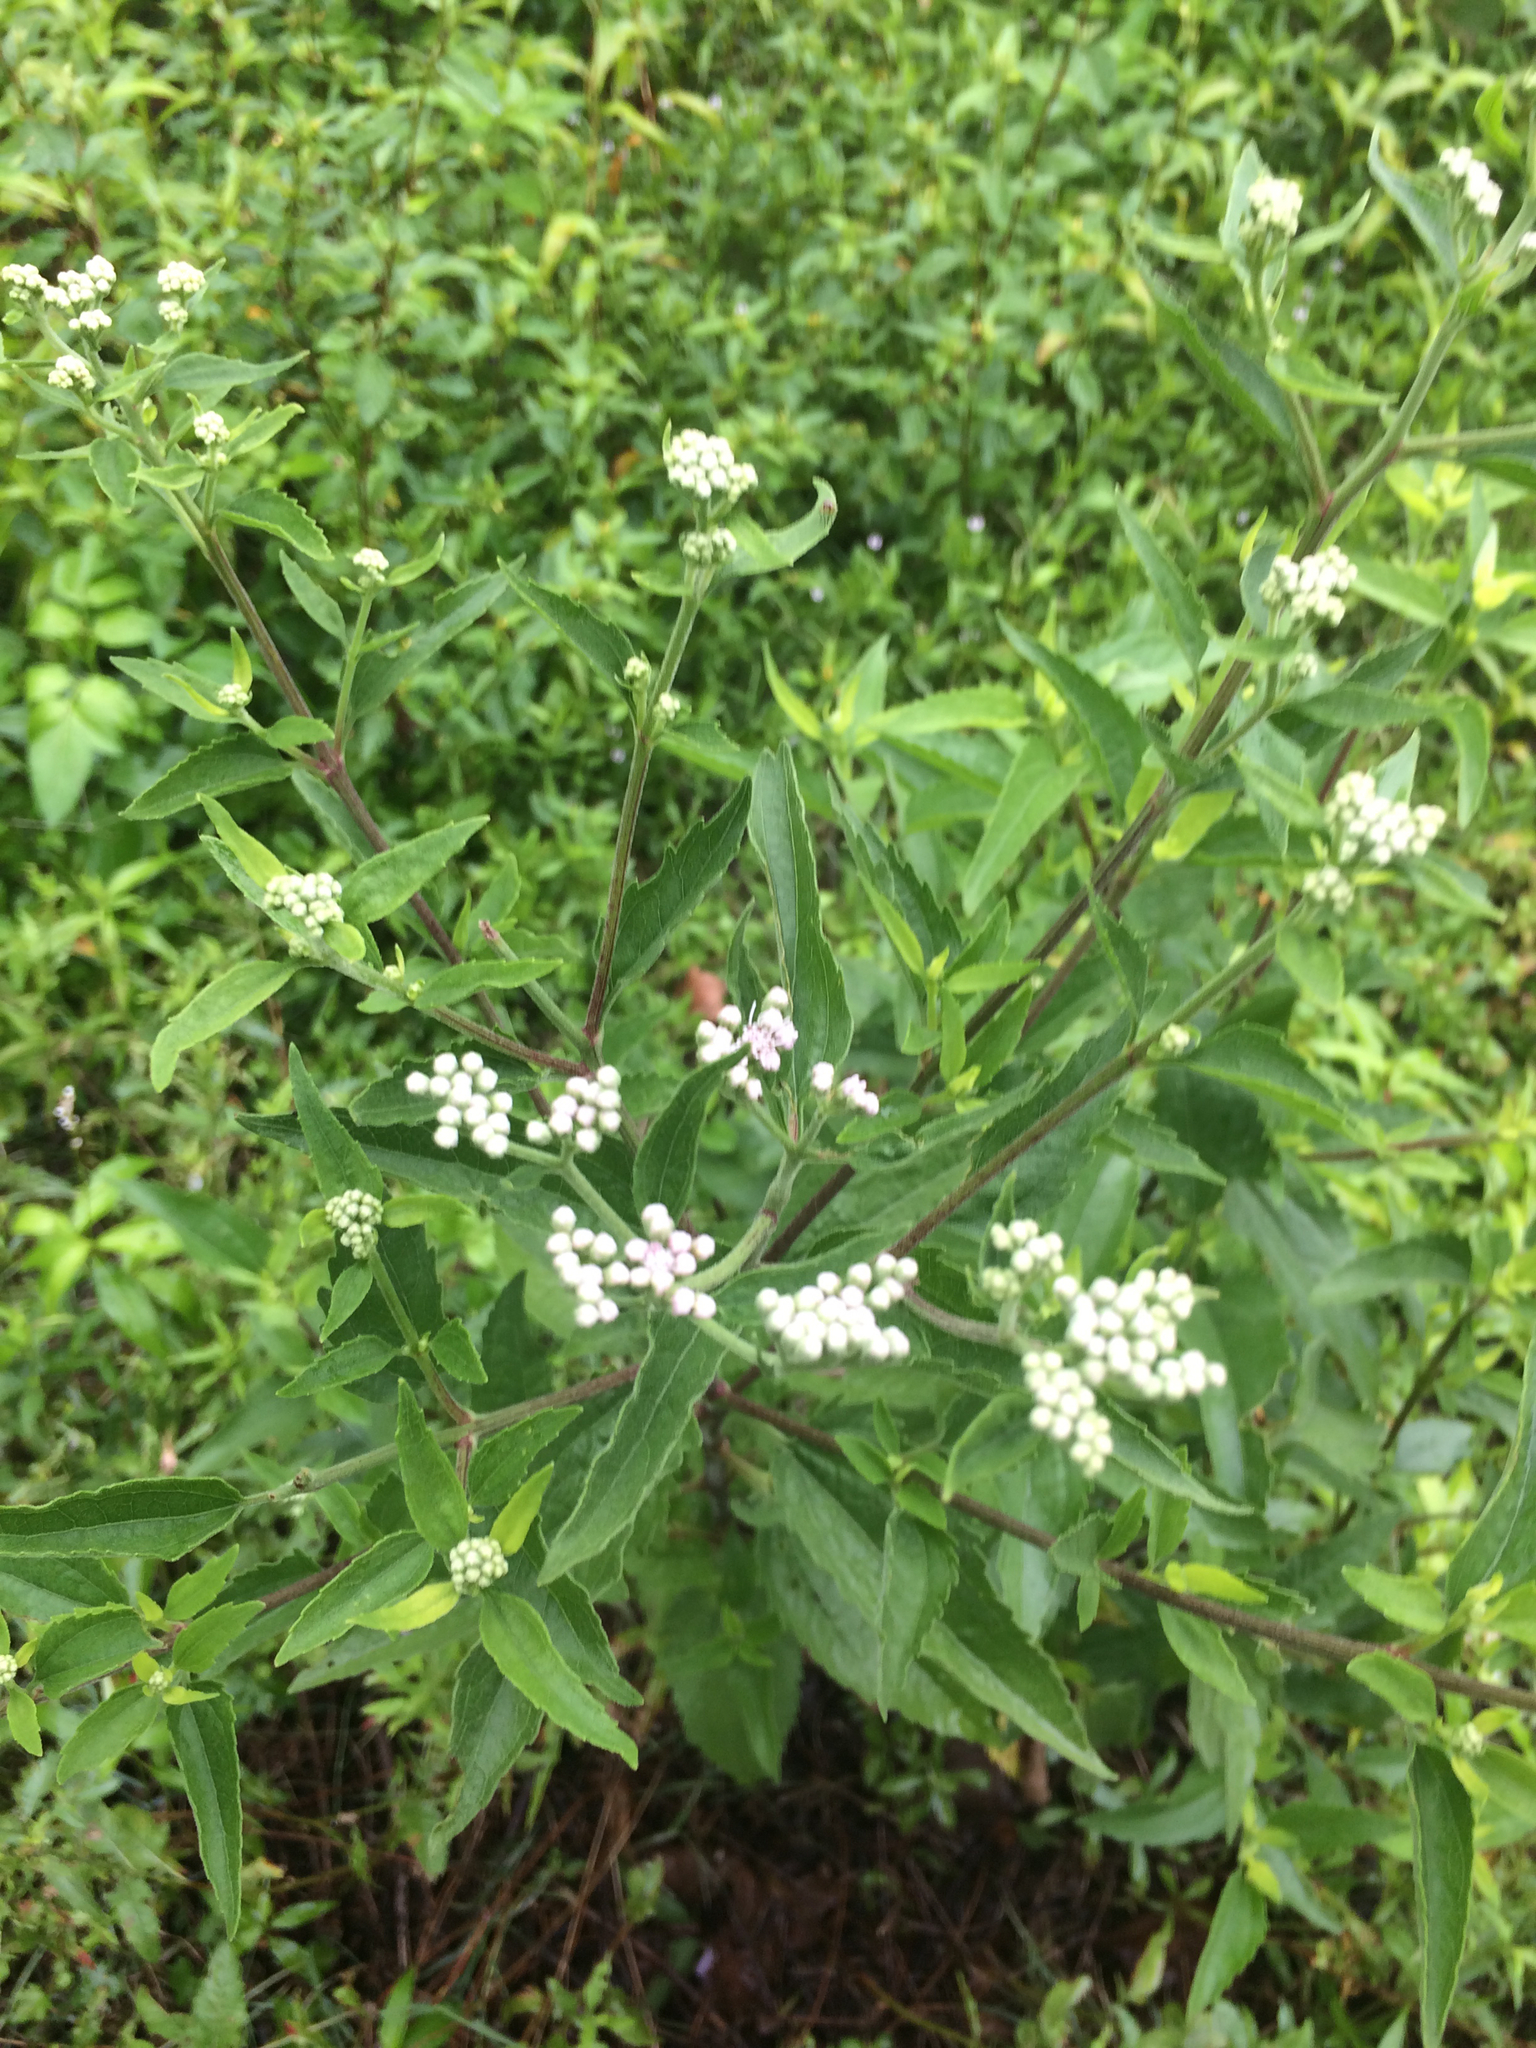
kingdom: Plantae
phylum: Tracheophyta
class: Magnoliopsida
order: Asterales
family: Asteraceae
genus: Eupatorium
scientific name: Eupatorium serotinum
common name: Late boneset
